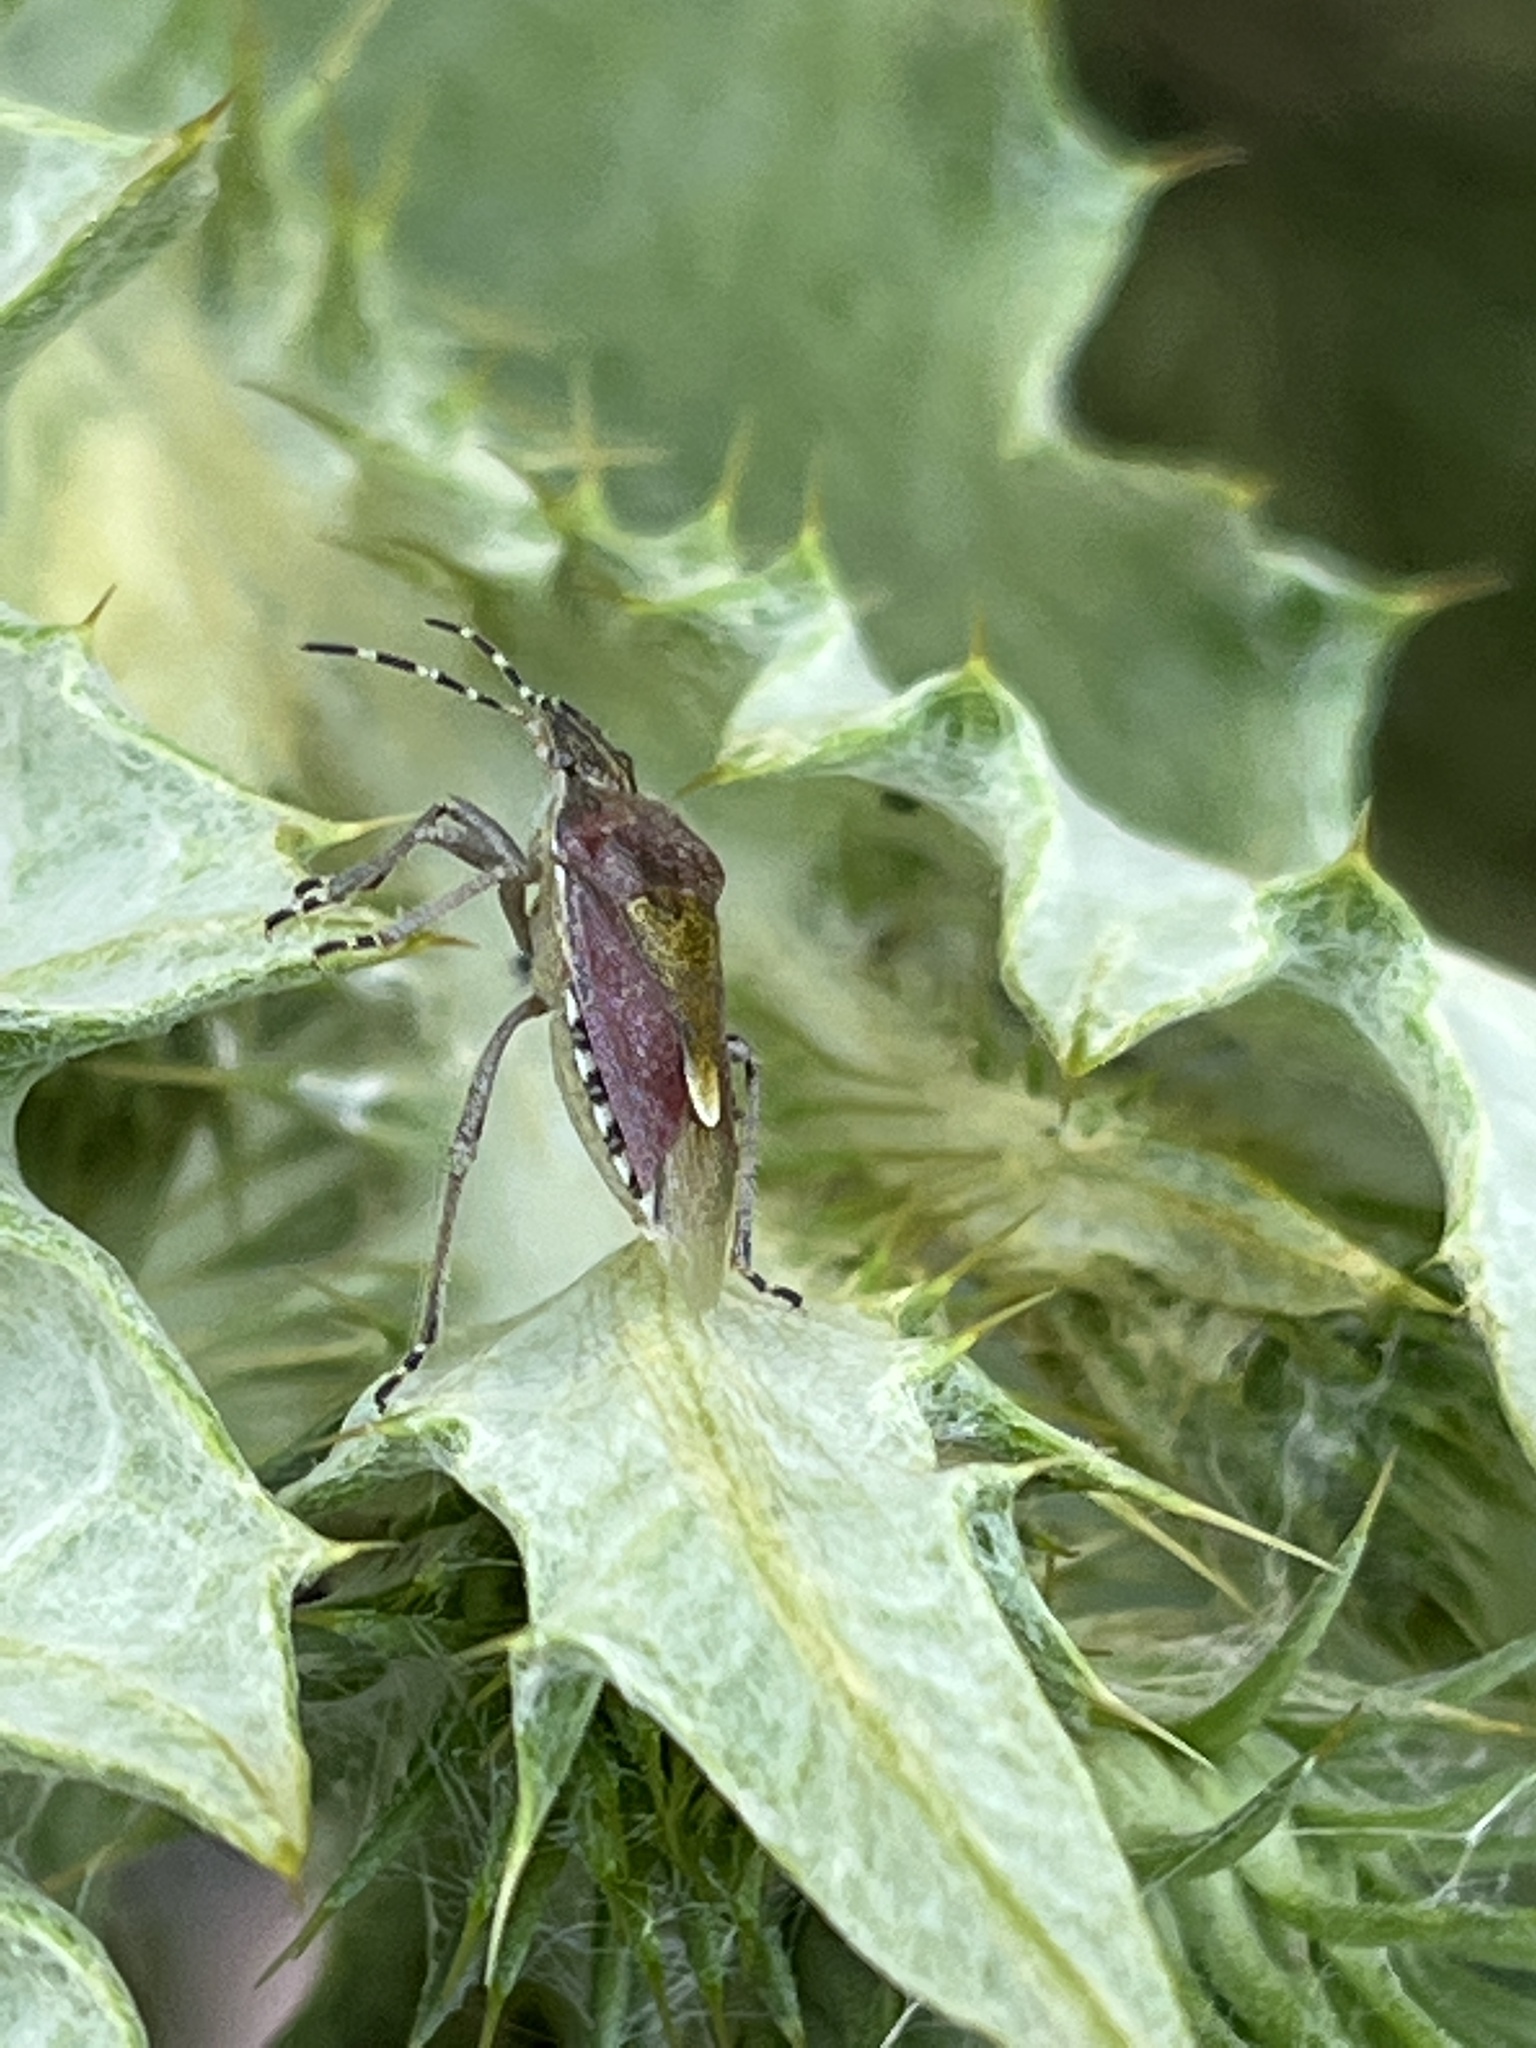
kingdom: Animalia
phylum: Arthropoda
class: Insecta
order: Hemiptera
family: Pentatomidae
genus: Dolycoris
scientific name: Dolycoris baccarum
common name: Sloe bug
